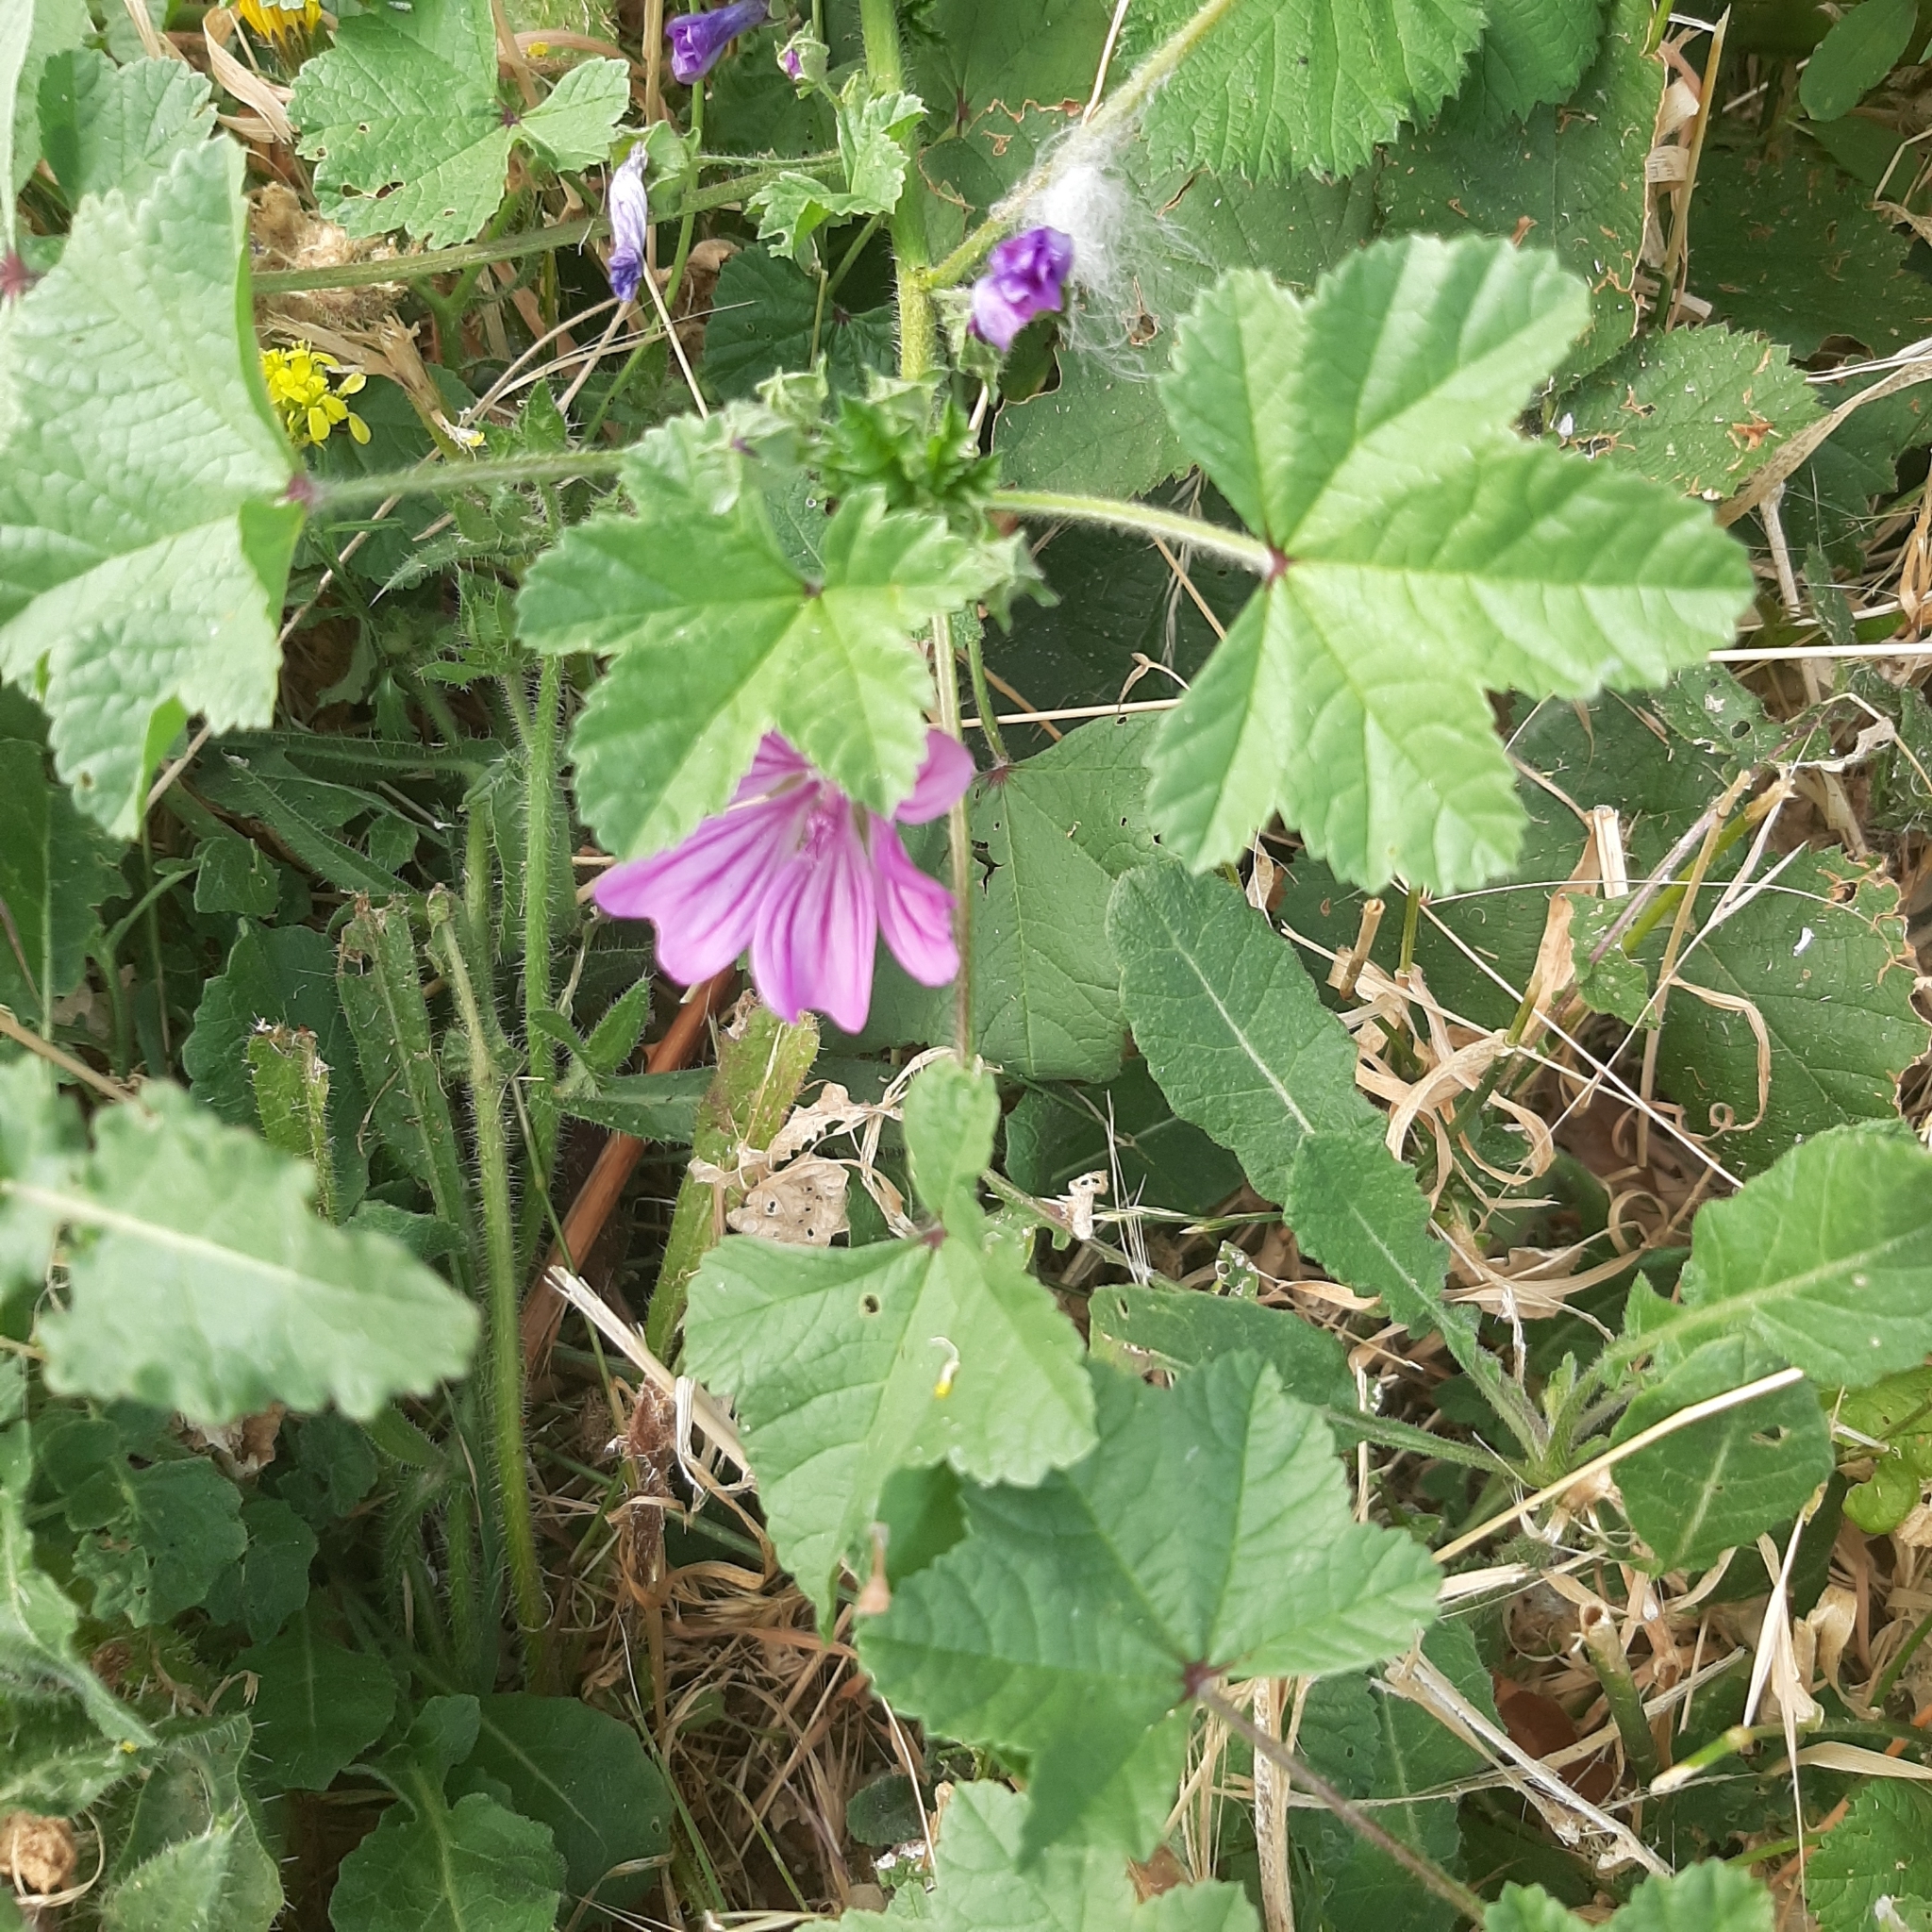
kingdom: Plantae
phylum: Tracheophyta
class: Magnoliopsida
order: Malvales
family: Malvaceae
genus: Malva
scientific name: Malva sylvestris
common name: Common mallow
